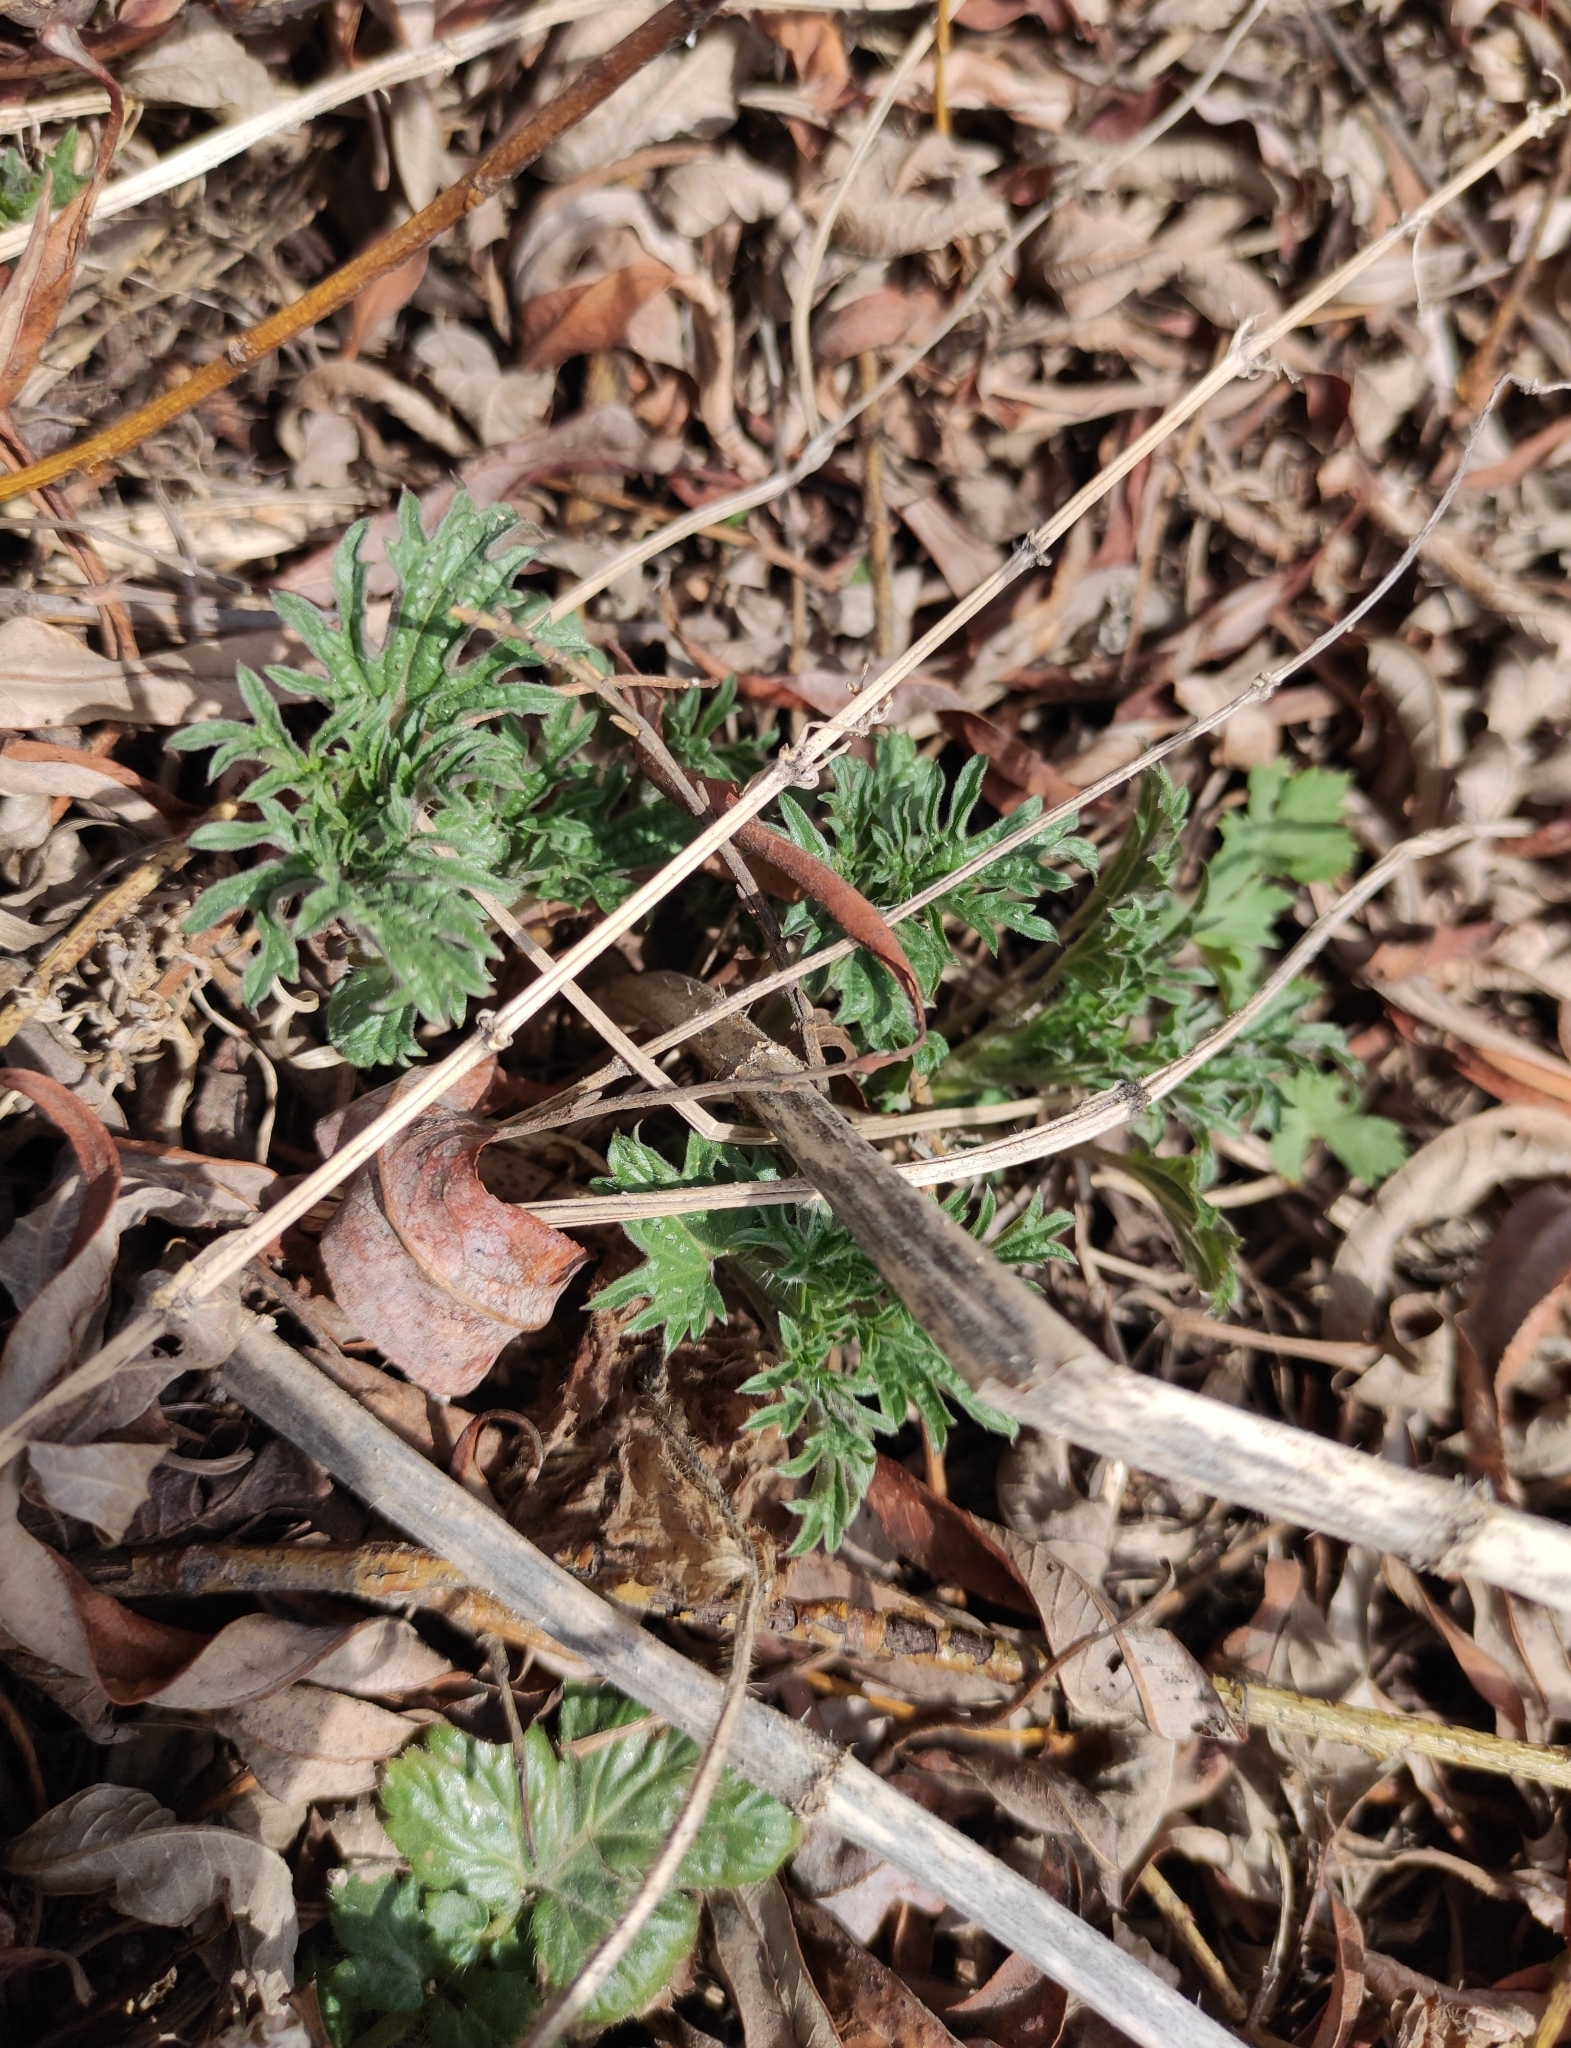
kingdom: Plantae
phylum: Tracheophyta
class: Magnoliopsida
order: Rosales
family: Urticaceae
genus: Urtica
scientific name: Urtica cannabina
